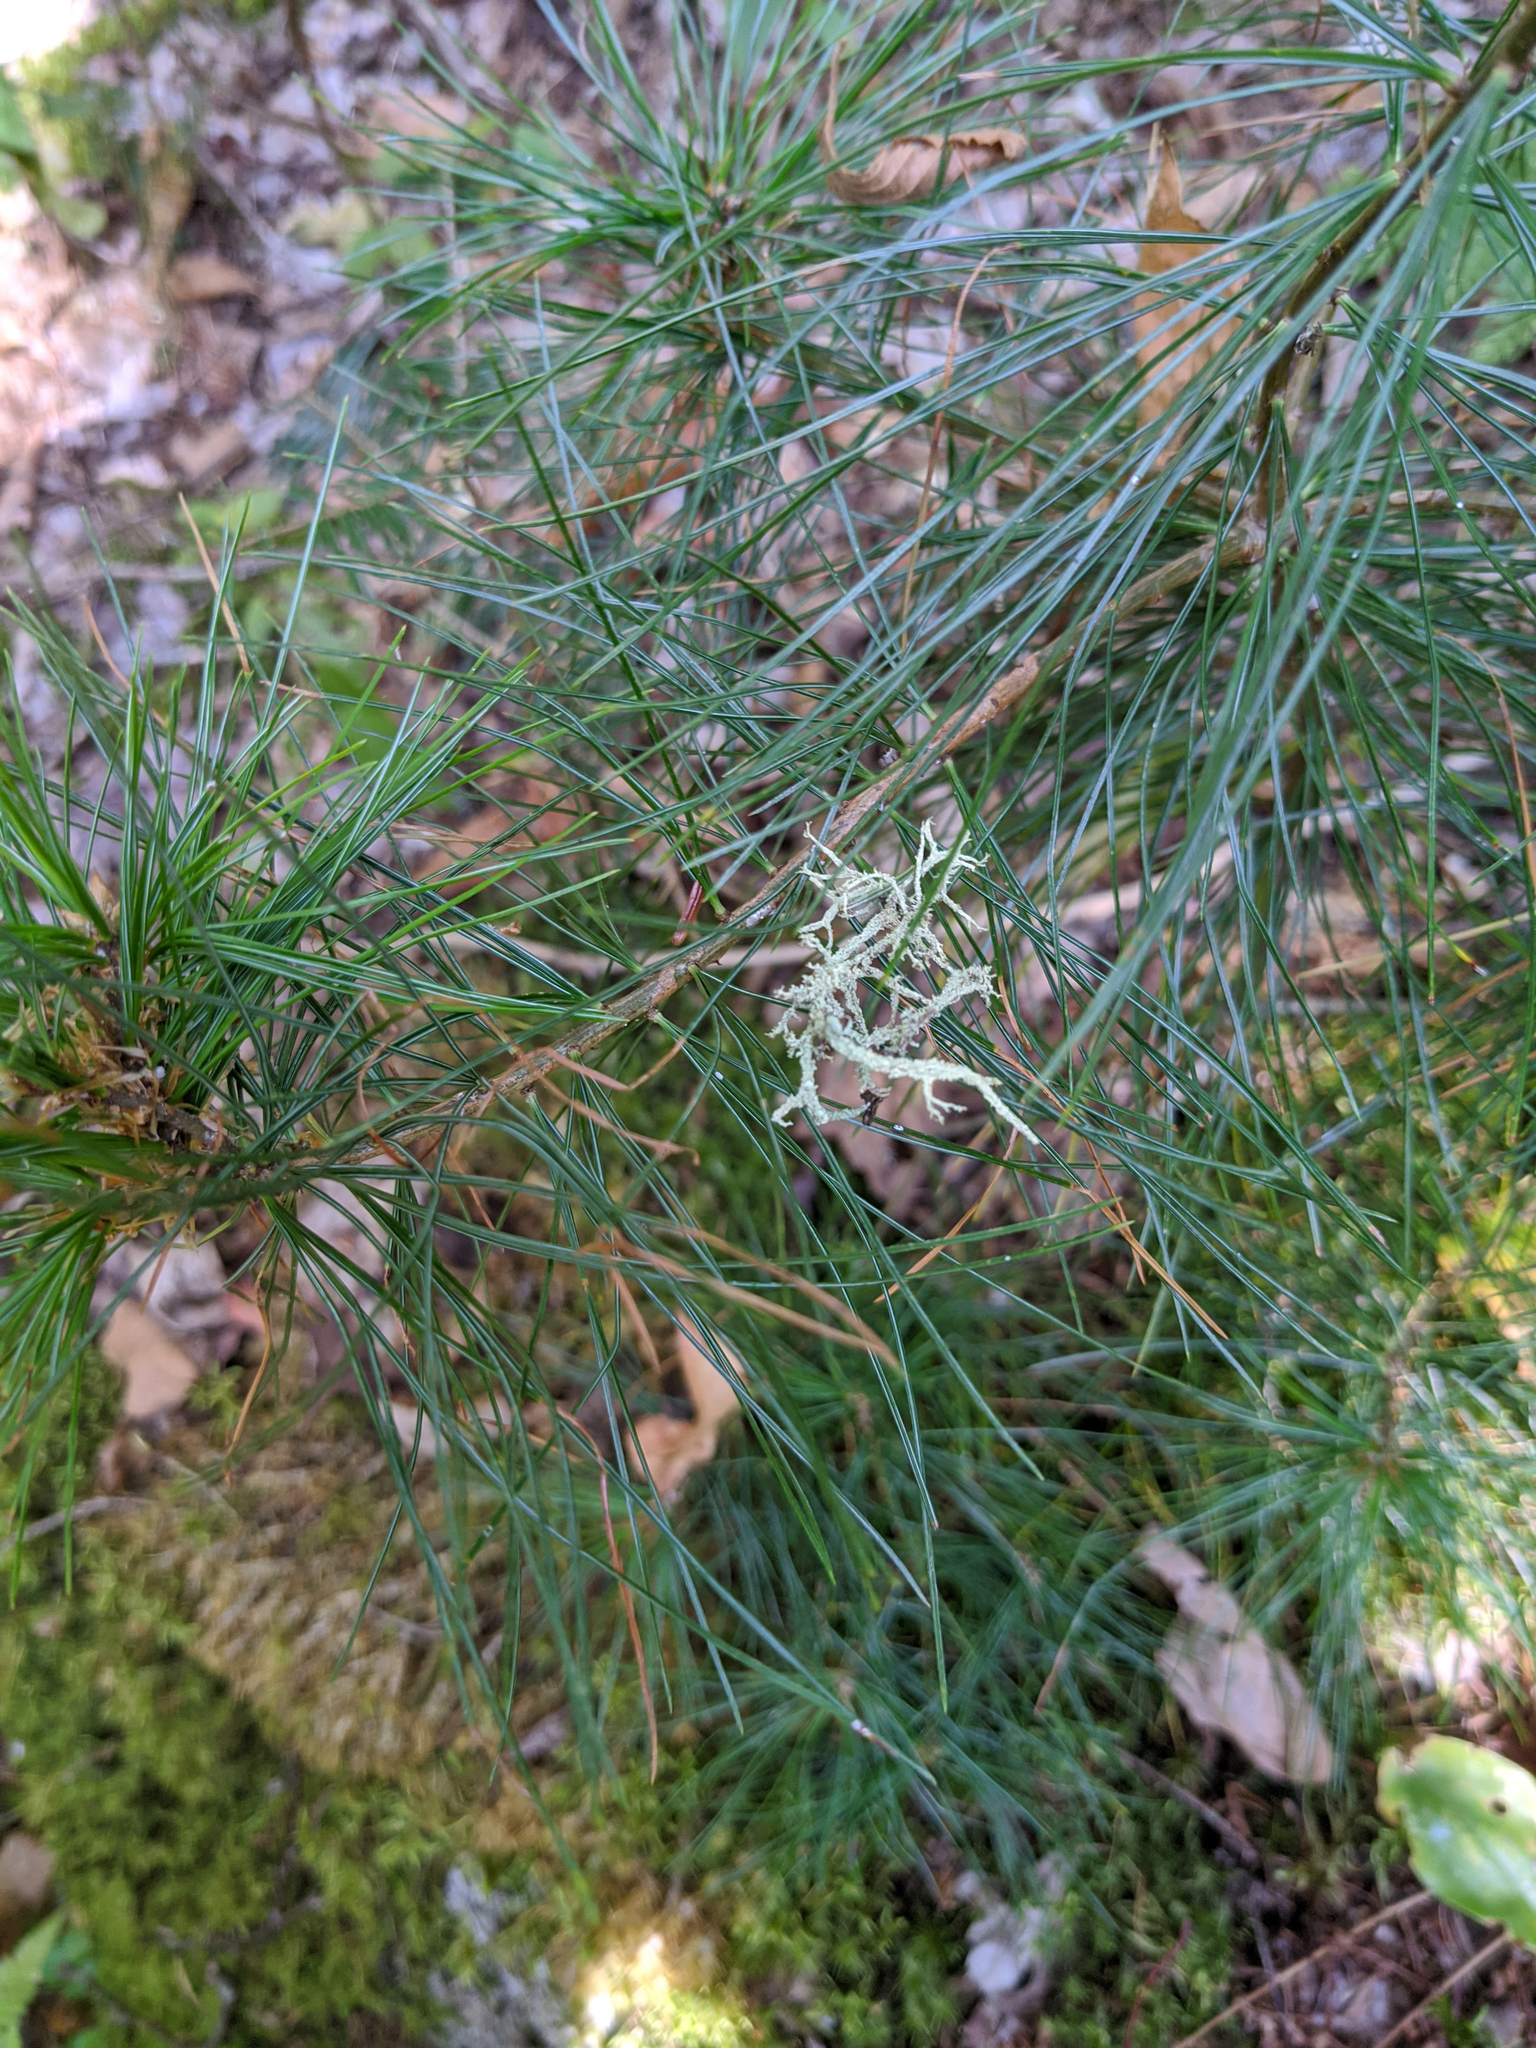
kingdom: Plantae
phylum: Tracheophyta
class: Pinopsida
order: Pinales
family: Pinaceae
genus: Pinus
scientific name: Pinus strobus
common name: Weymouth pine
